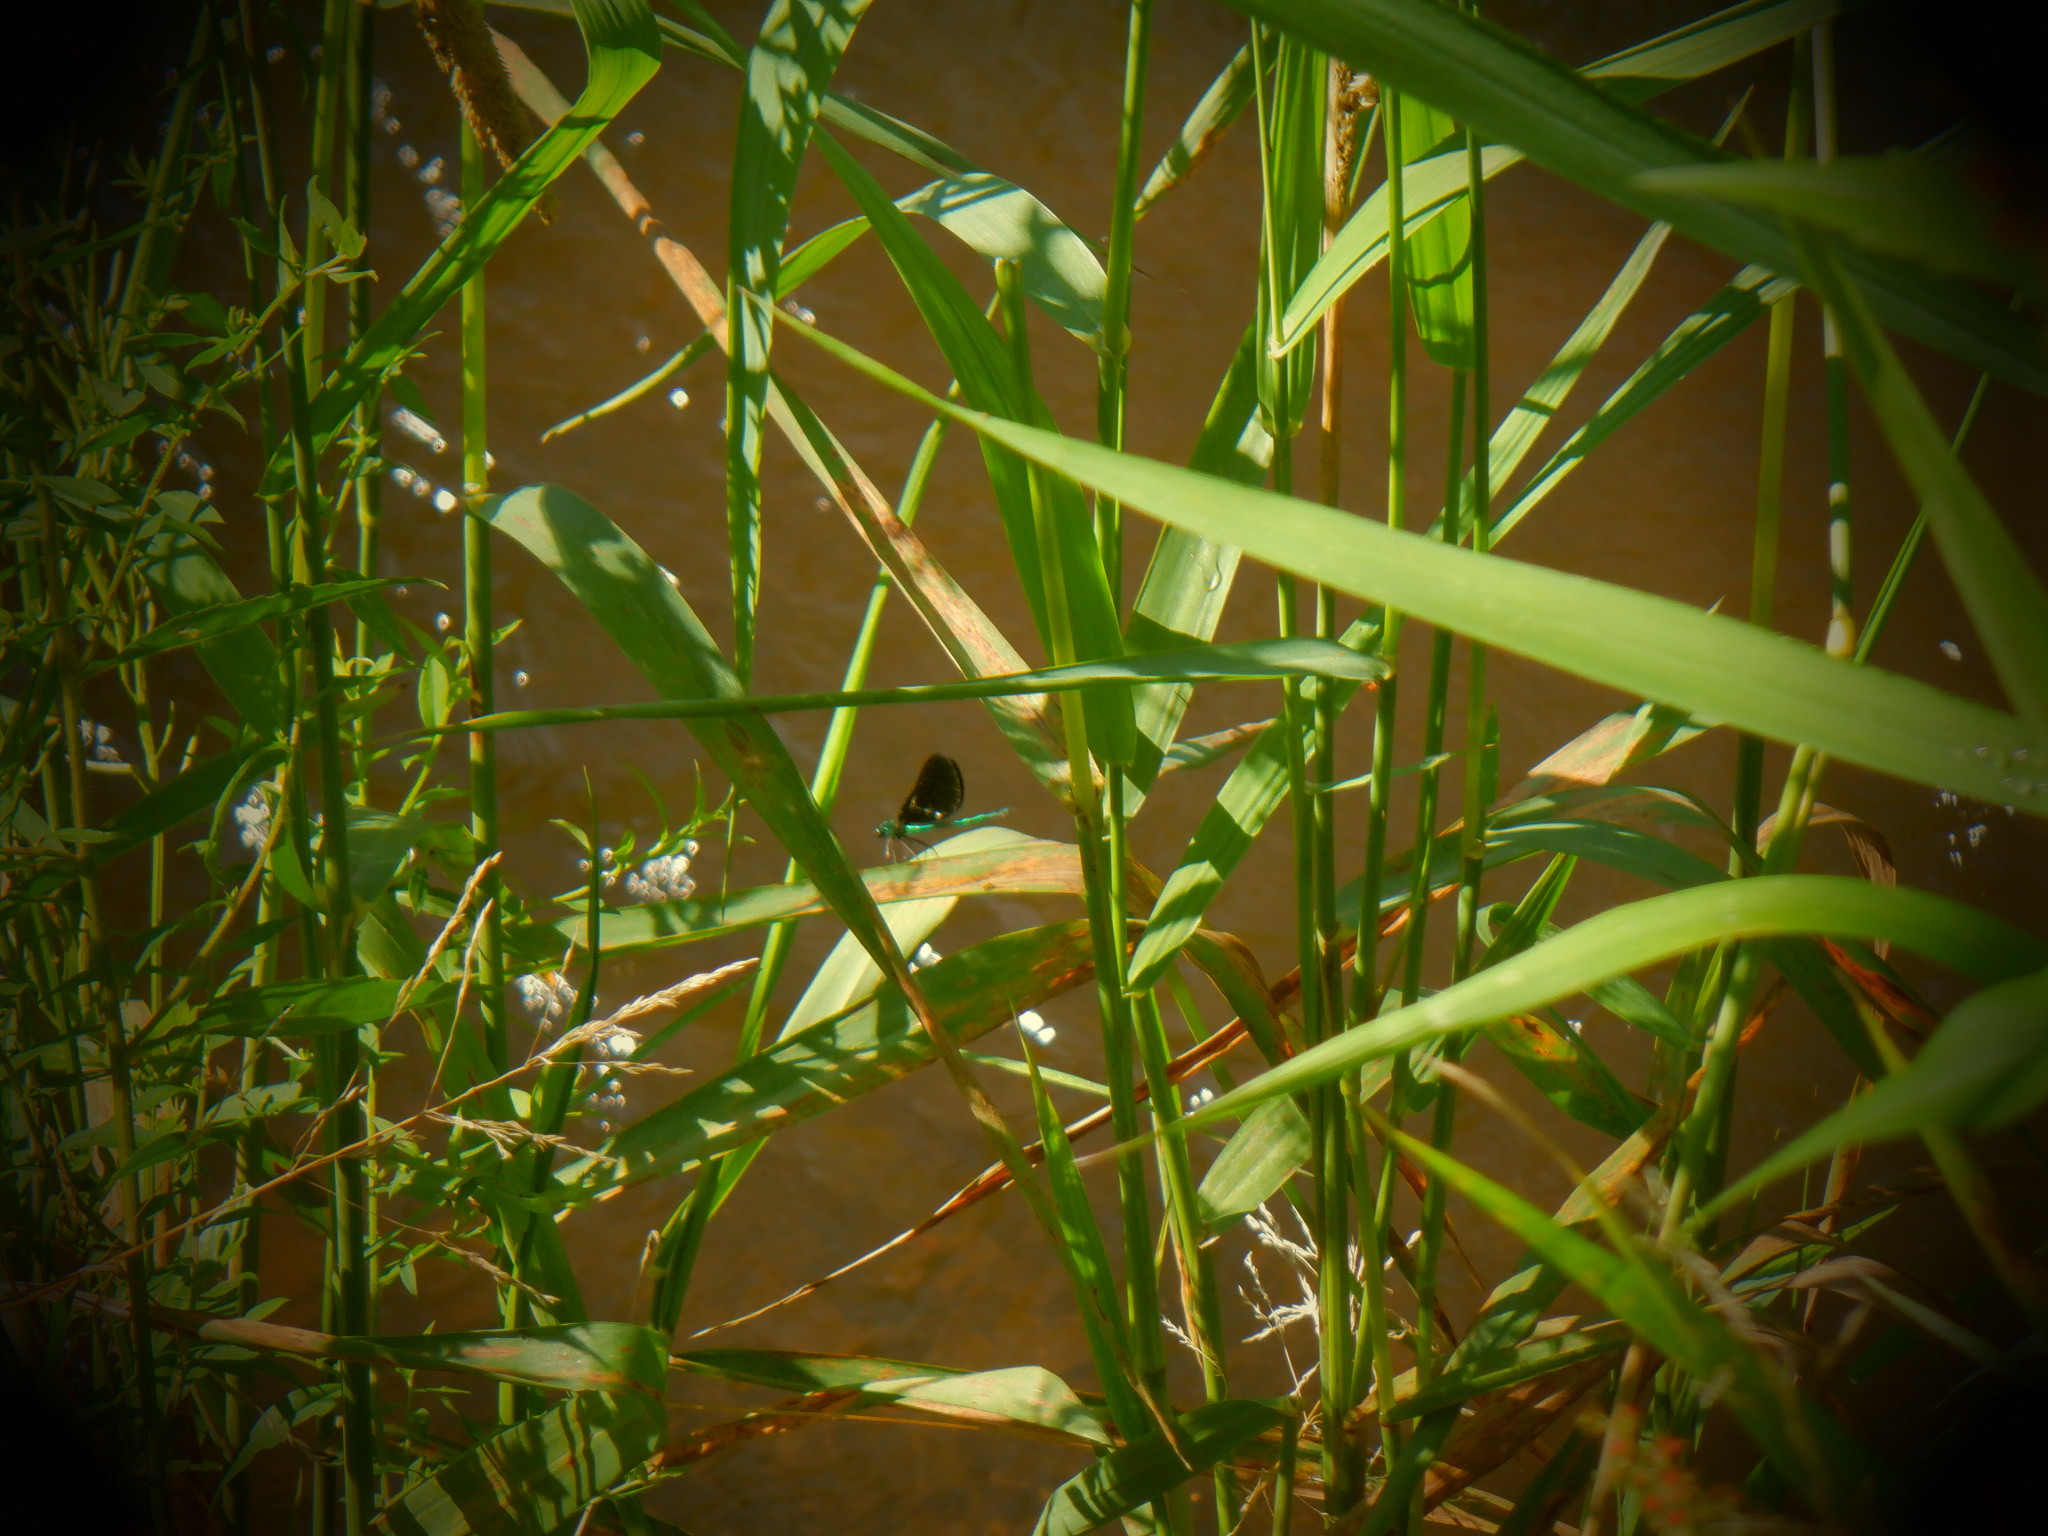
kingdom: Animalia
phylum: Arthropoda
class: Insecta
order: Odonata
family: Calopterygidae
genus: Calopteryx
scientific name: Calopteryx maculata
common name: Ebony jewelwing
